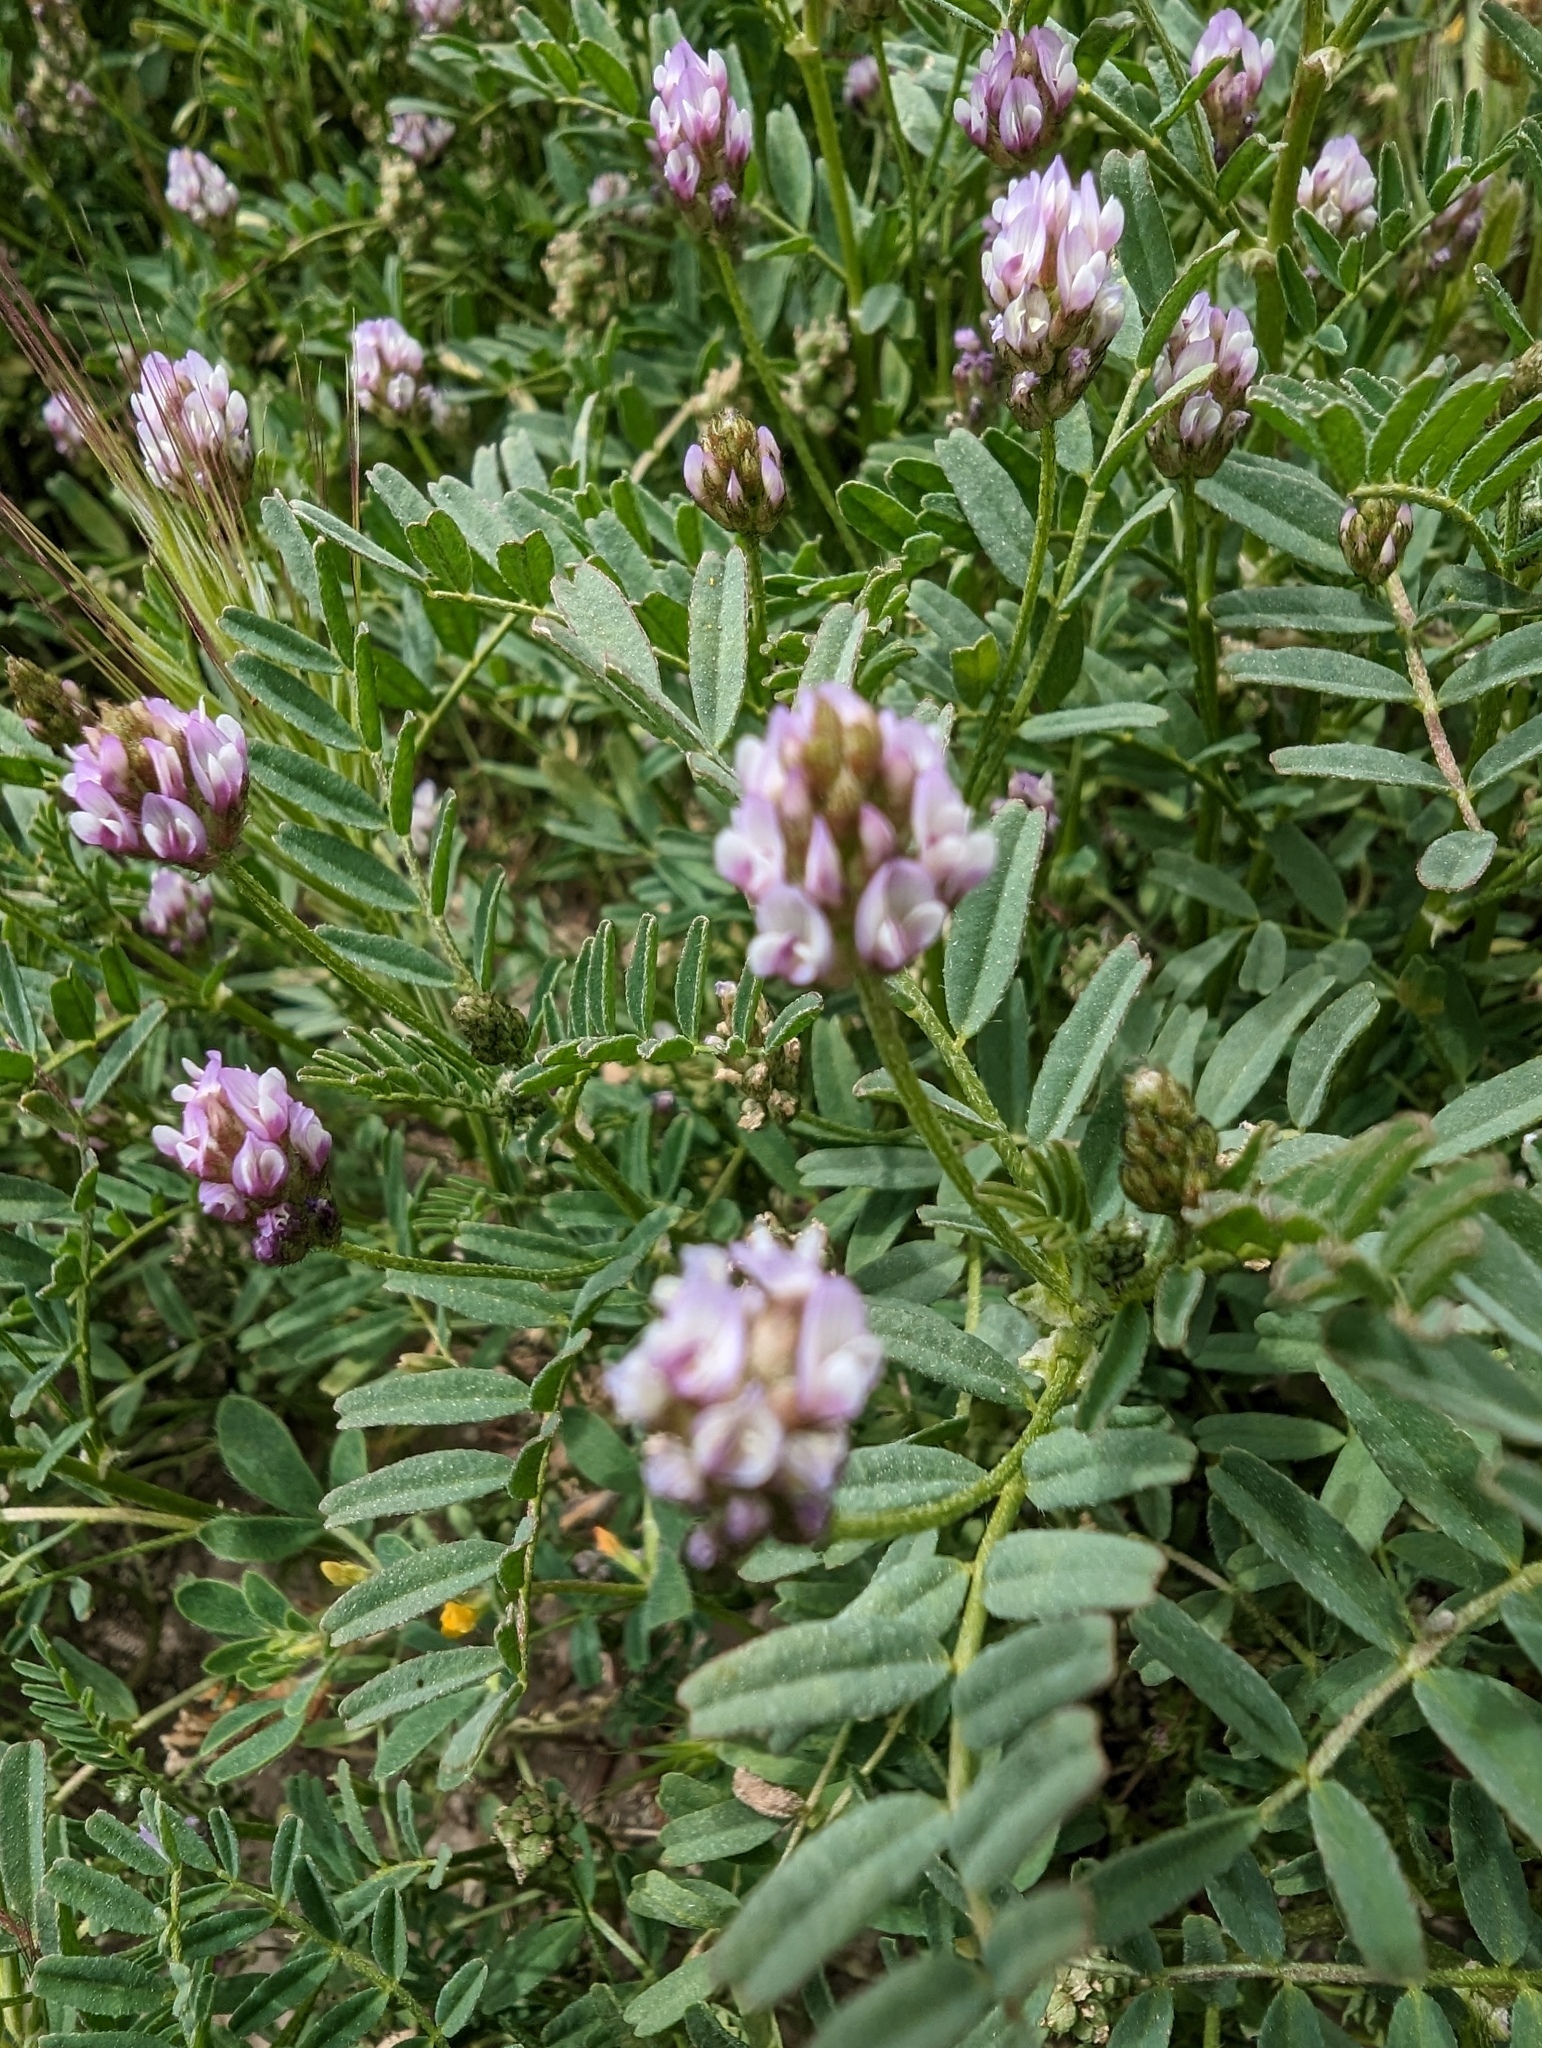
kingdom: Plantae
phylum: Tracheophyta
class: Magnoliopsida
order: Fabales
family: Fabaceae
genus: Astragalus
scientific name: Astragalus didymocarpus
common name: Dwarf white milkvetch
